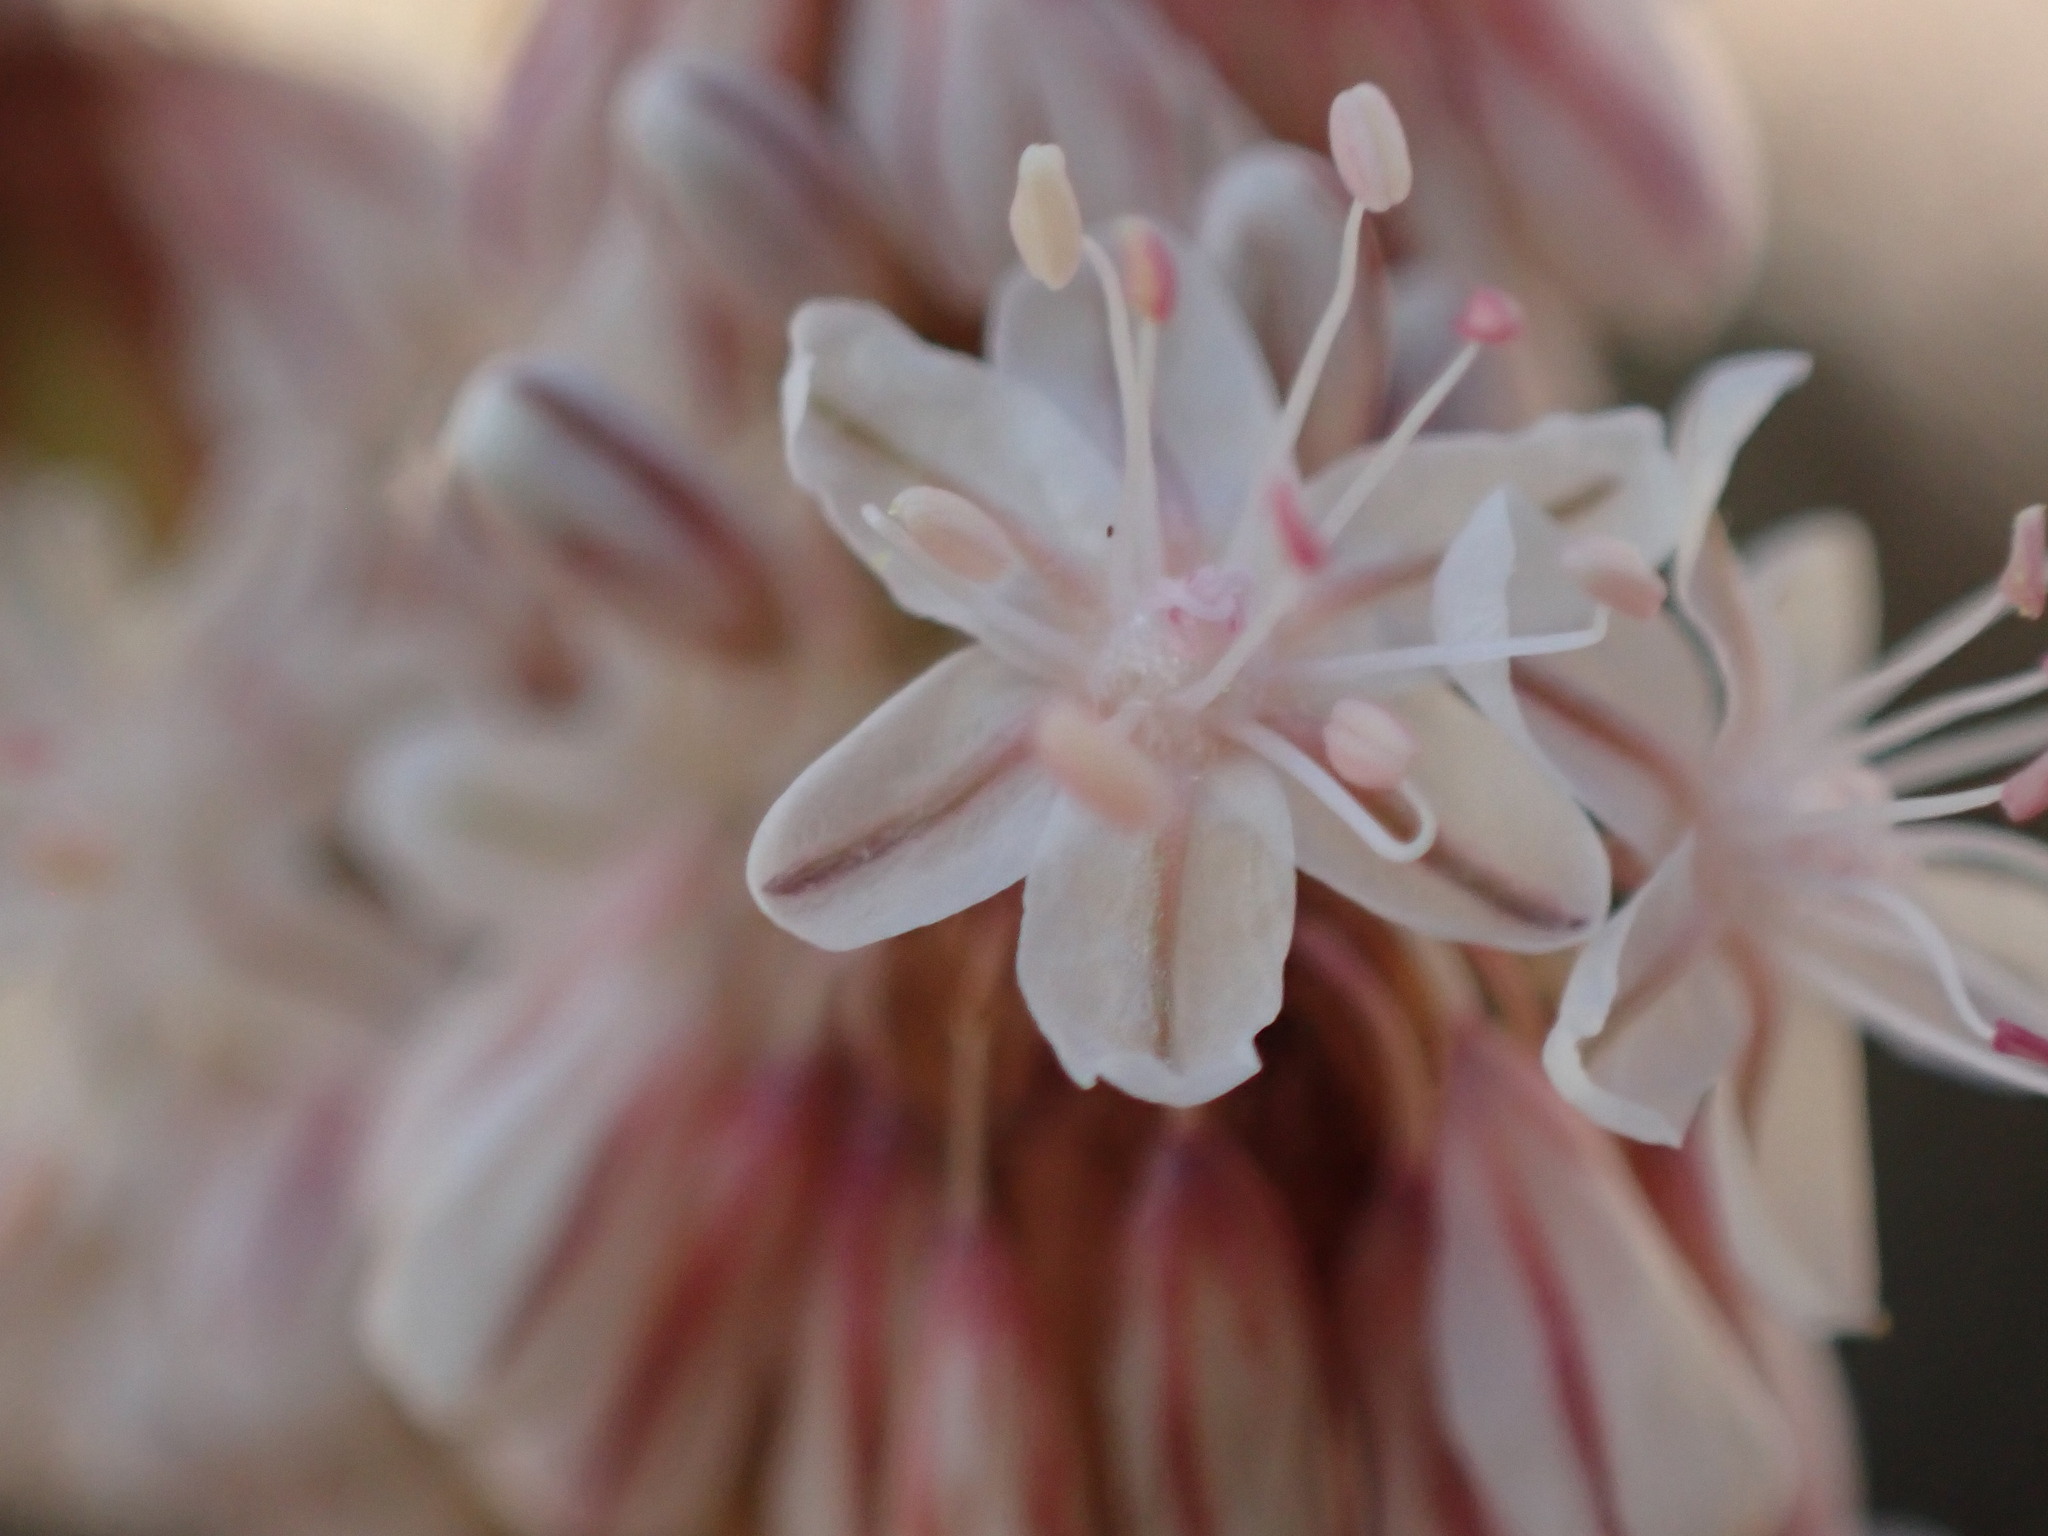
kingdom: Plantae
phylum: Tracheophyta
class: Magnoliopsida
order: Caryophyllales
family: Polygonaceae
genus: Eriogonum
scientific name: Eriogonum racemosum
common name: Redroot wild buckwheat
